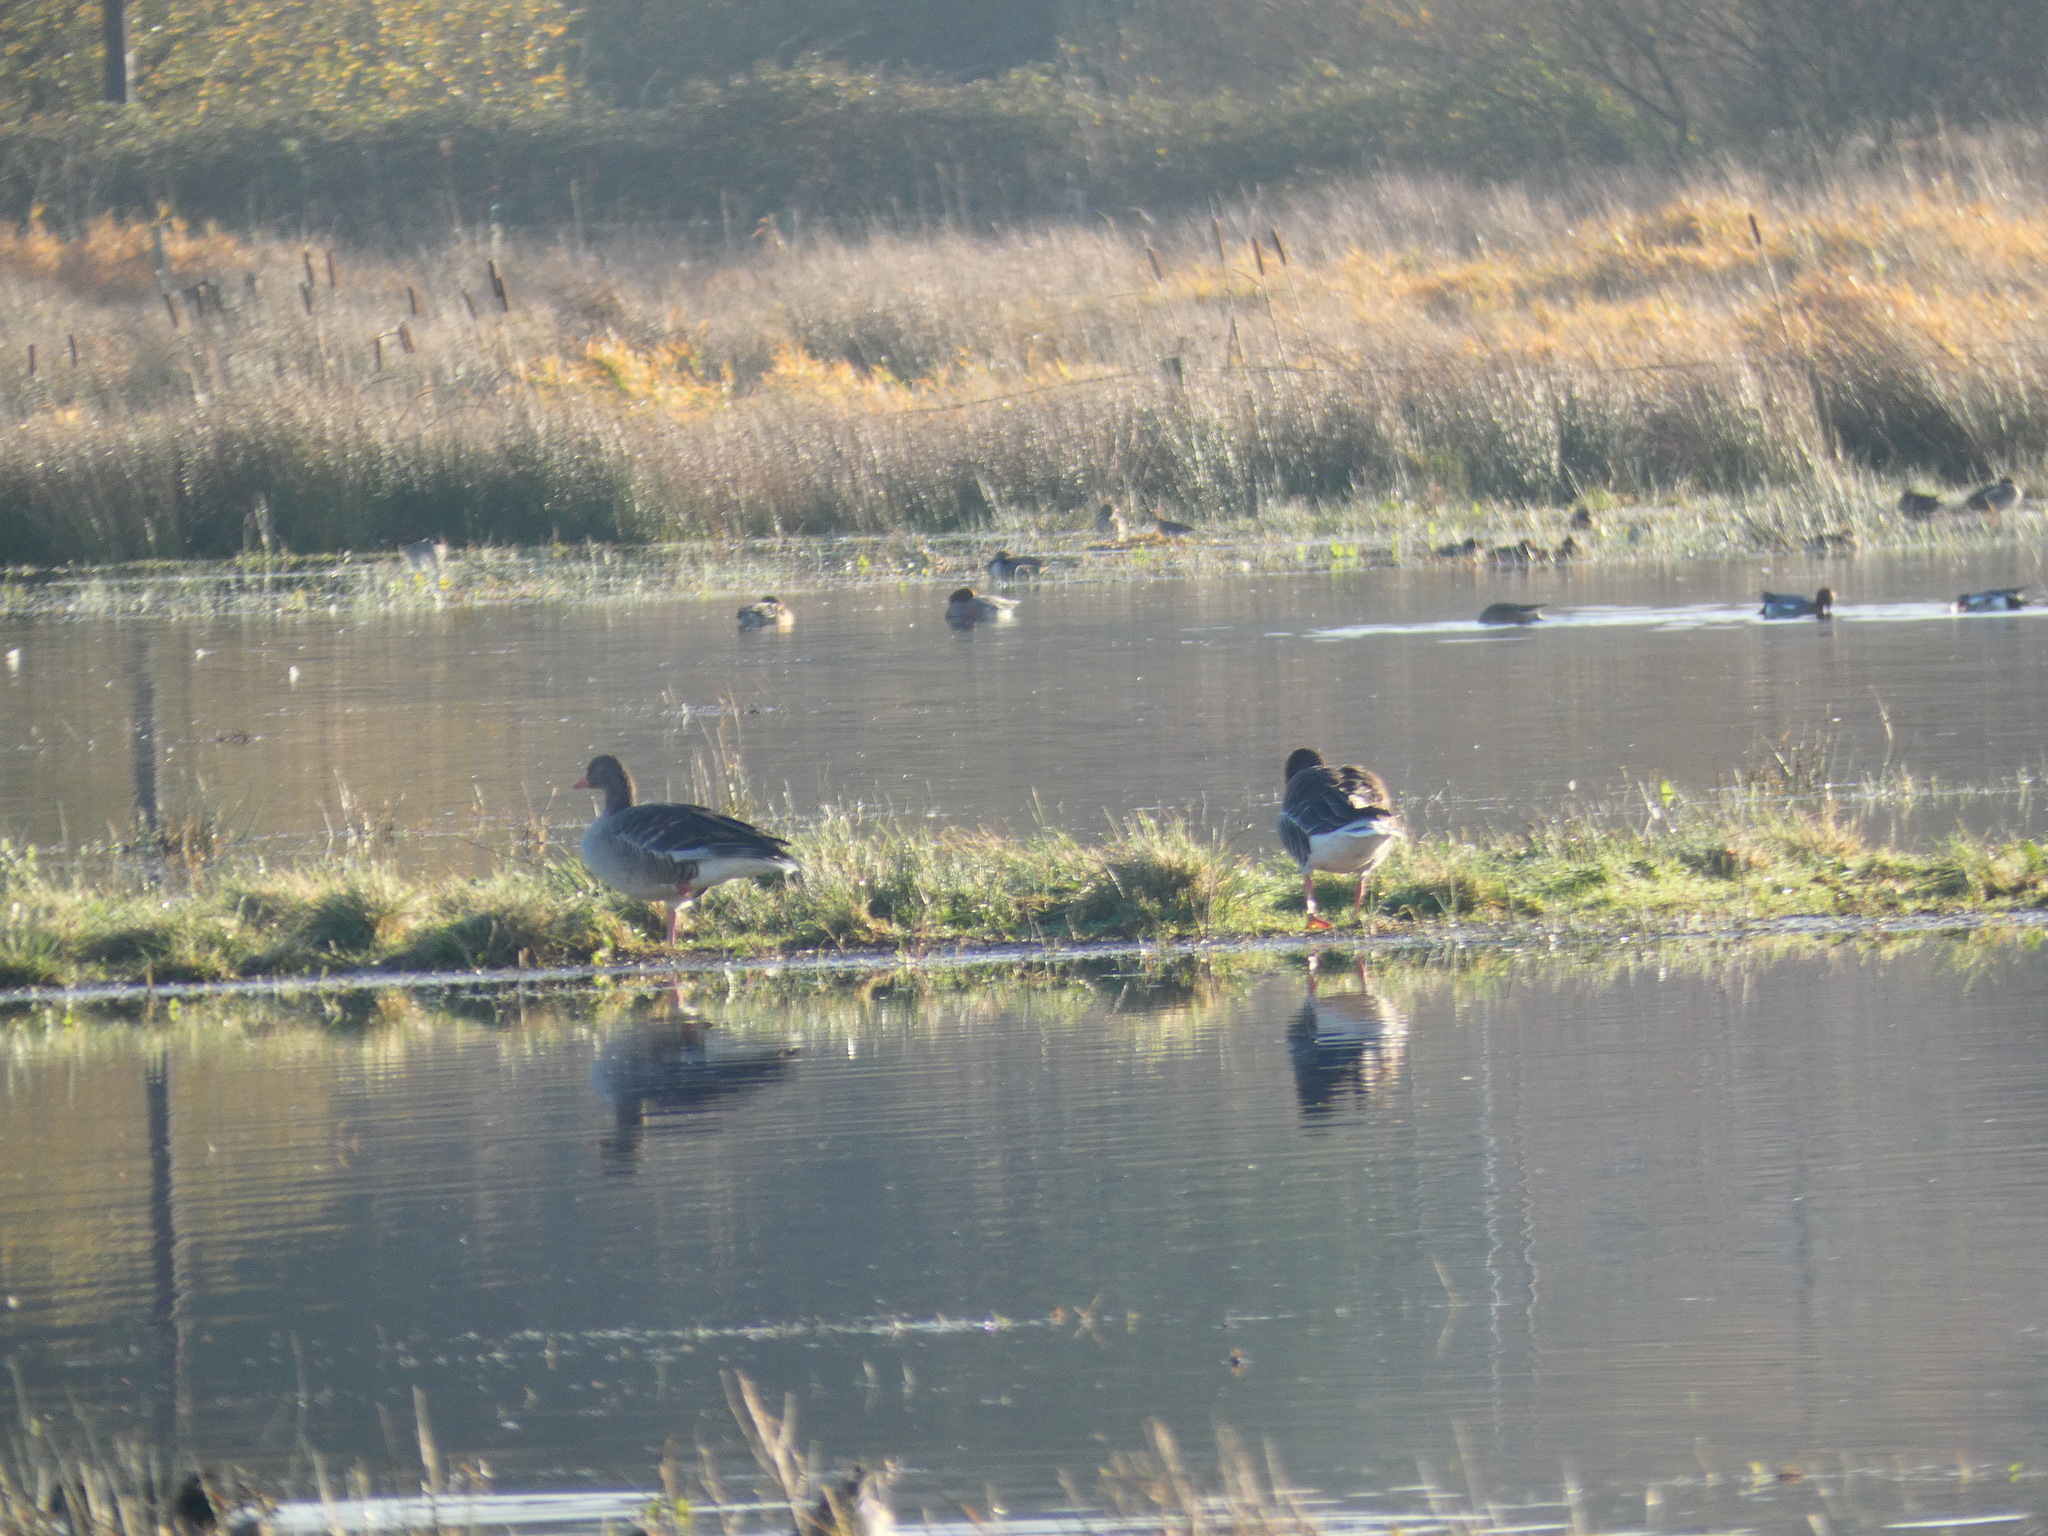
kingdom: Animalia
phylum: Chordata
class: Aves
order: Anseriformes
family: Anatidae
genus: Anser
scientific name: Anser anser
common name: Greylag goose
